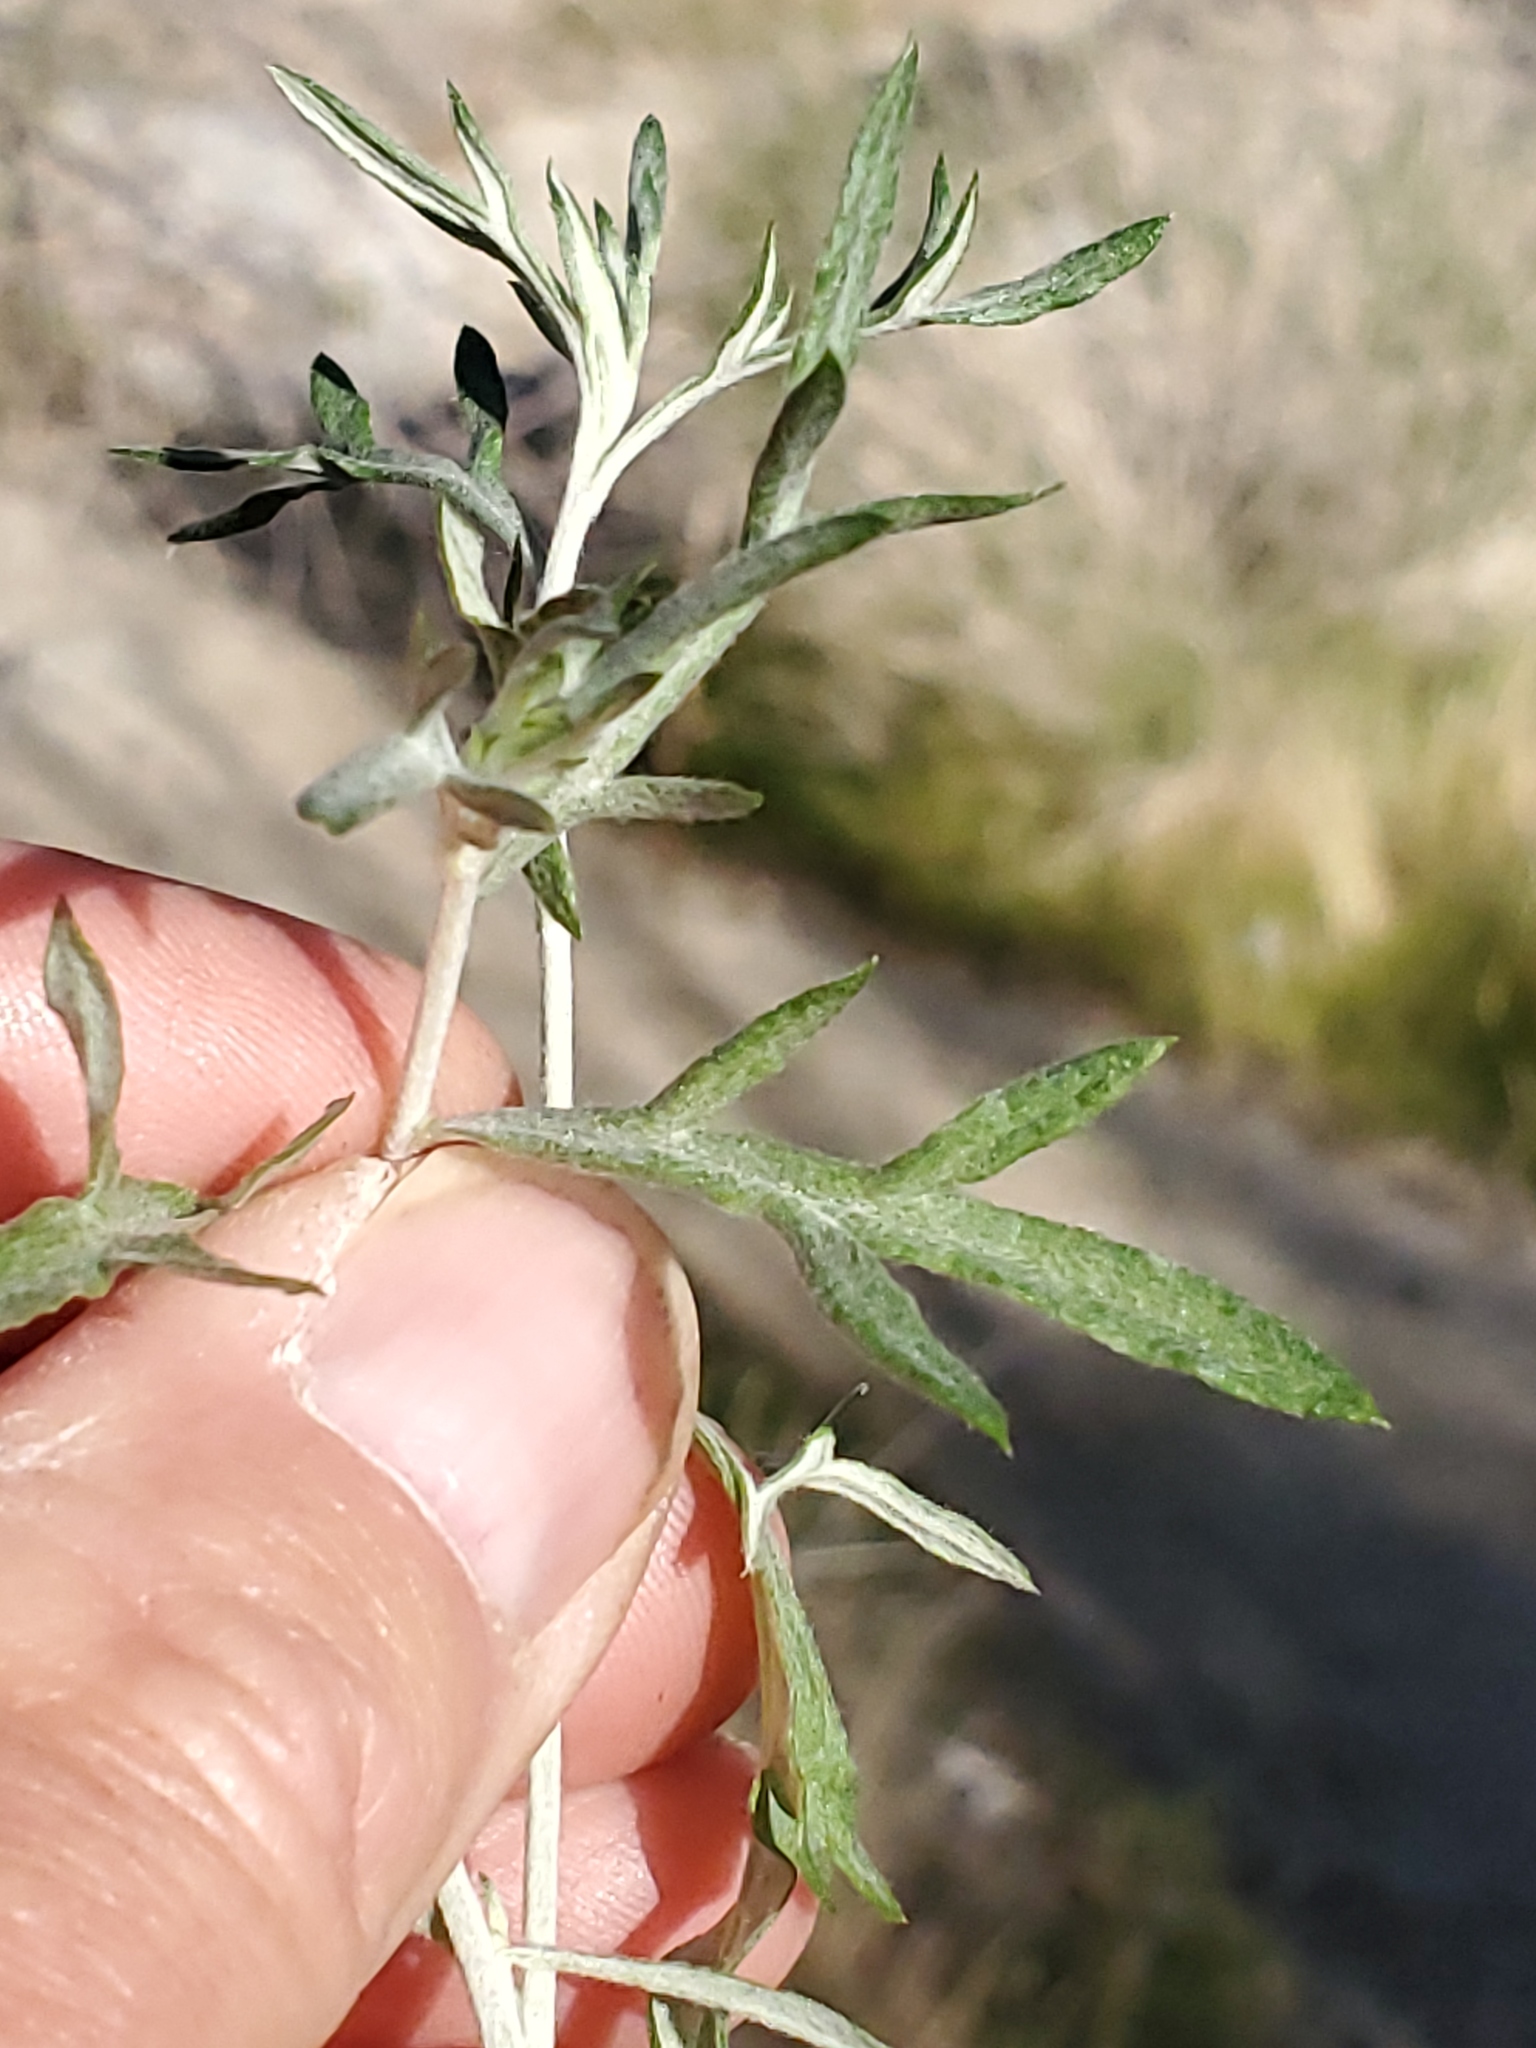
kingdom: Plantae
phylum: Tracheophyta
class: Magnoliopsida
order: Asterales
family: Asteraceae
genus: Artemisia
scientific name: Artemisia ludoviciana
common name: Western mugwort
